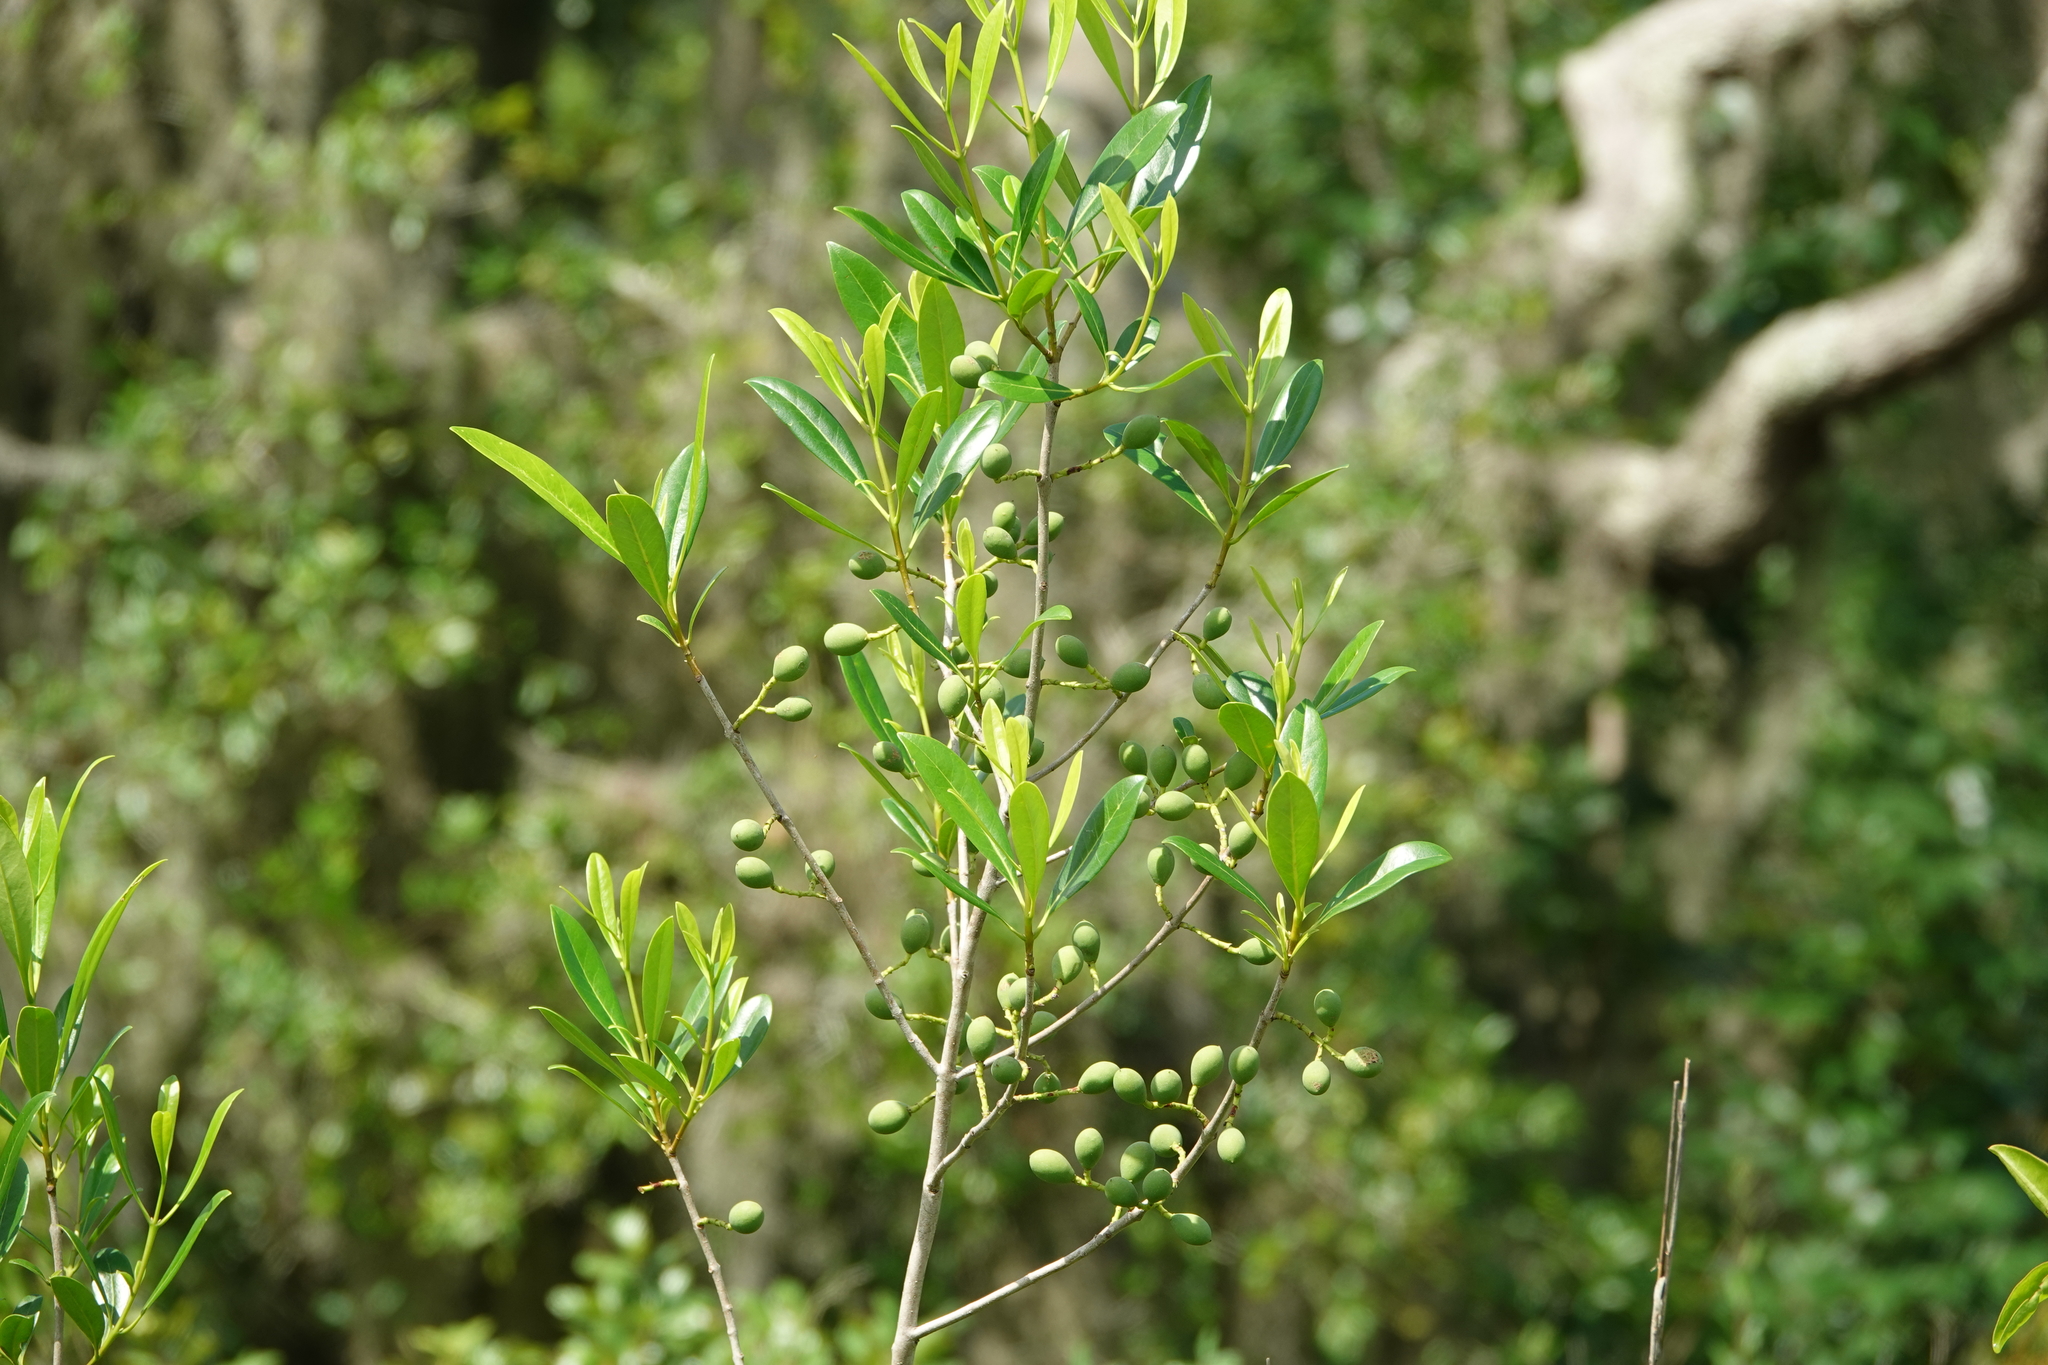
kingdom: Plantae
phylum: Tracheophyta
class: Magnoliopsida
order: Lamiales
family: Oleaceae
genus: Chionanthus
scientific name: Chionanthus pygmaeus
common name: Pygmy fringetree
